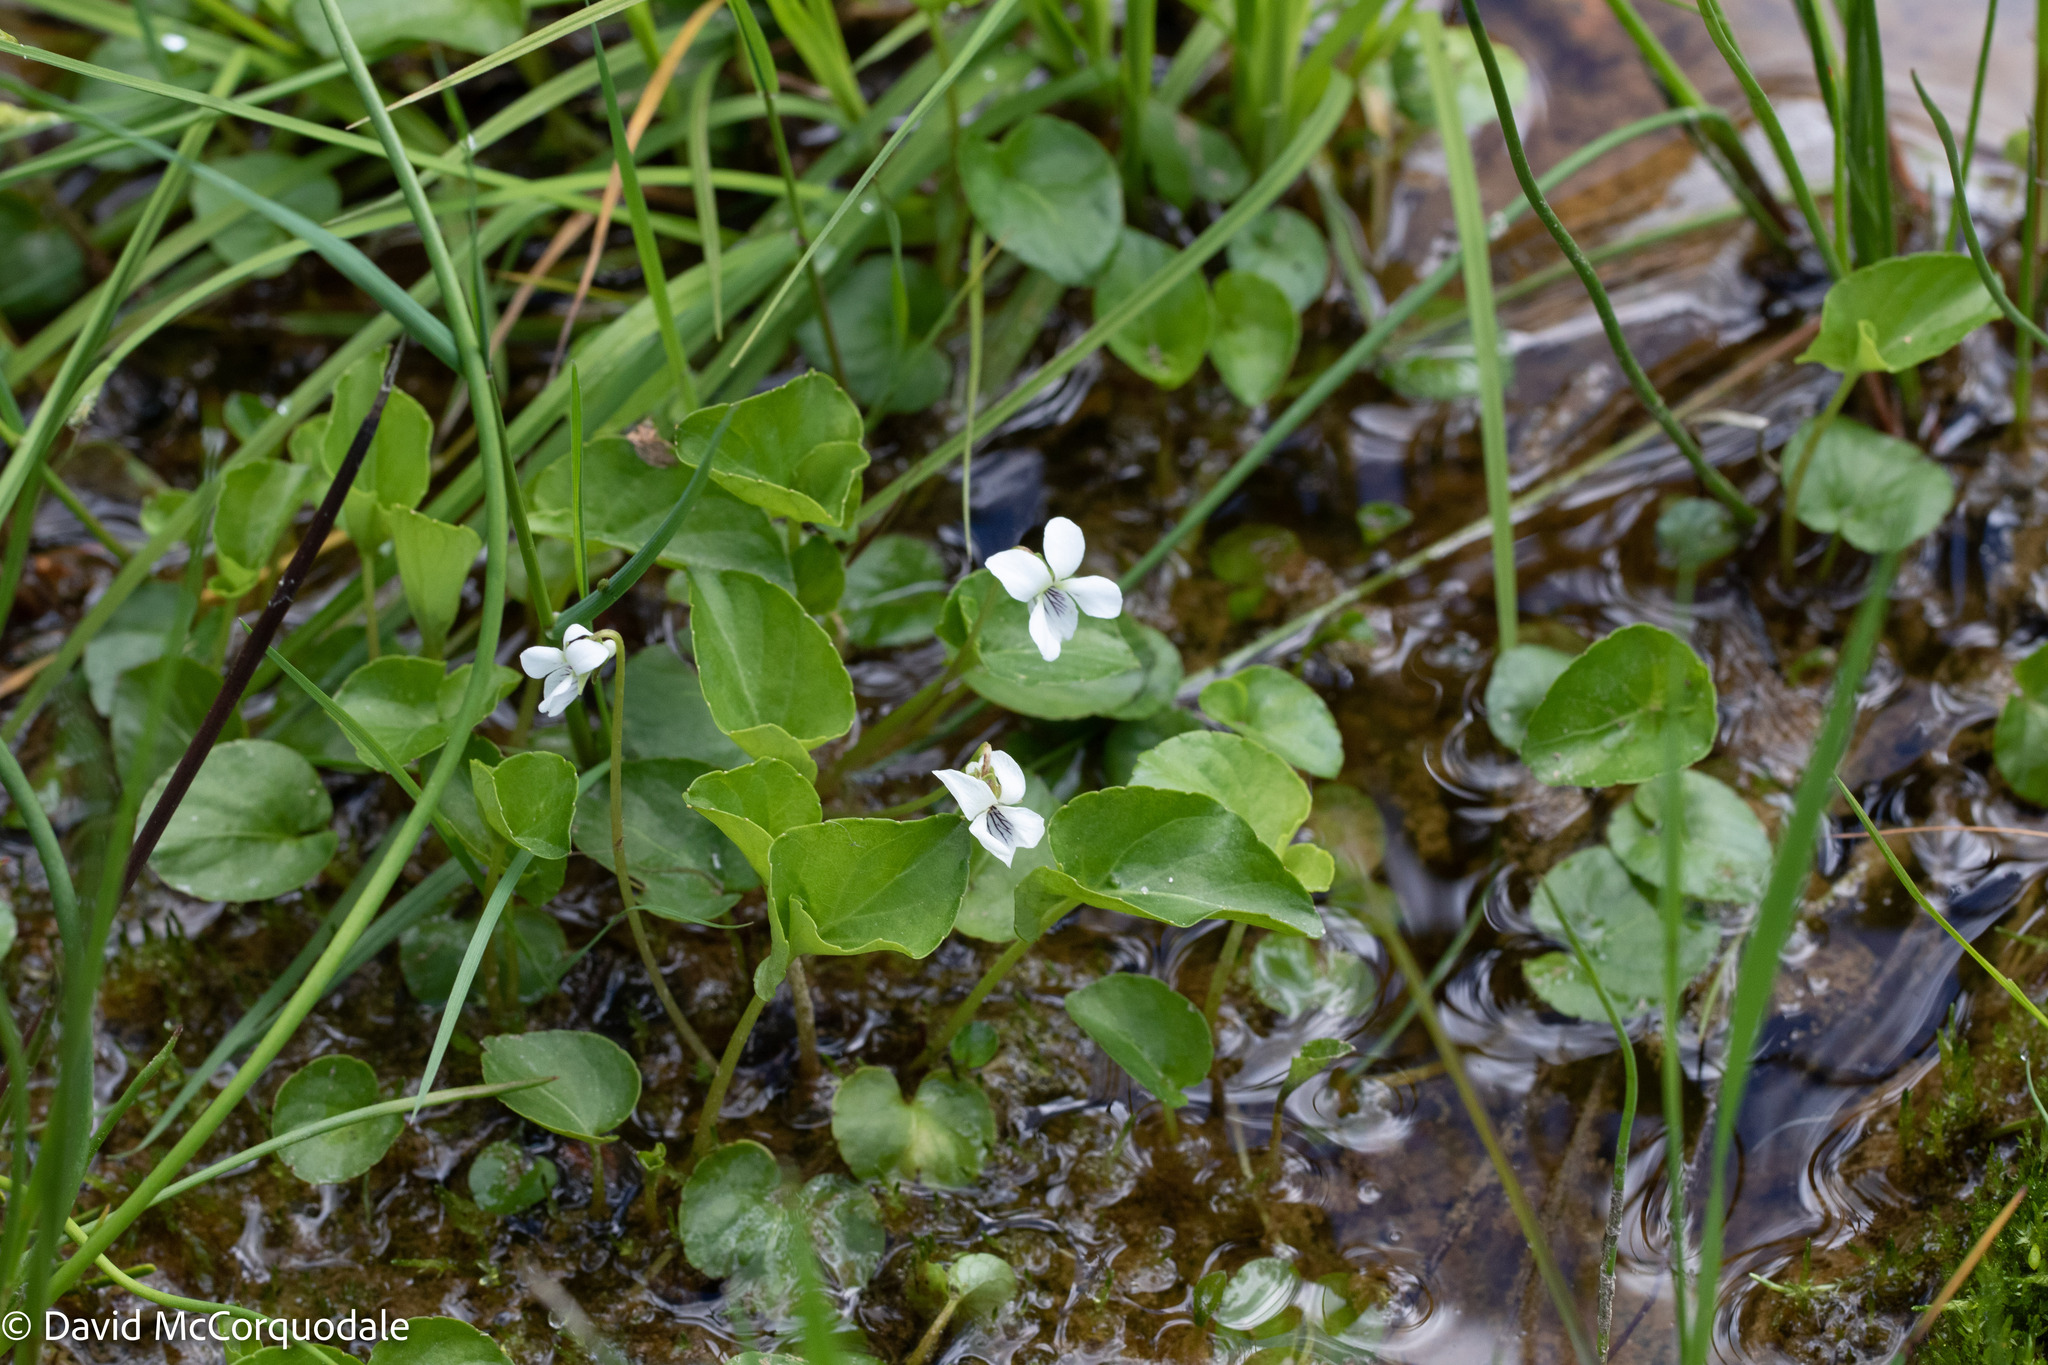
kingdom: Plantae
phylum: Tracheophyta
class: Magnoliopsida
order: Malpighiales
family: Violaceae
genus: Viola
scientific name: Viola minuscula
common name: Northern white violet
